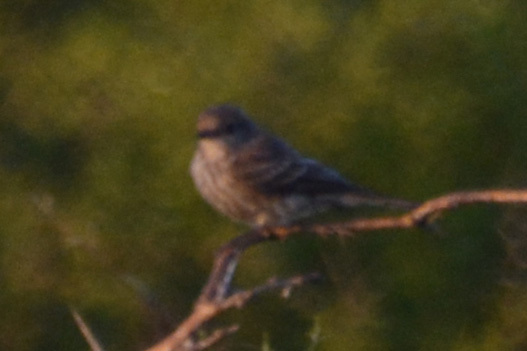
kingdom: Animalia
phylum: Chordata
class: Aves
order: Passeriformes
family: Tyrannidae
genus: Pyrocephalus
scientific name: Pyrocephalus rubinus
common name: Vermilion flycatcher
